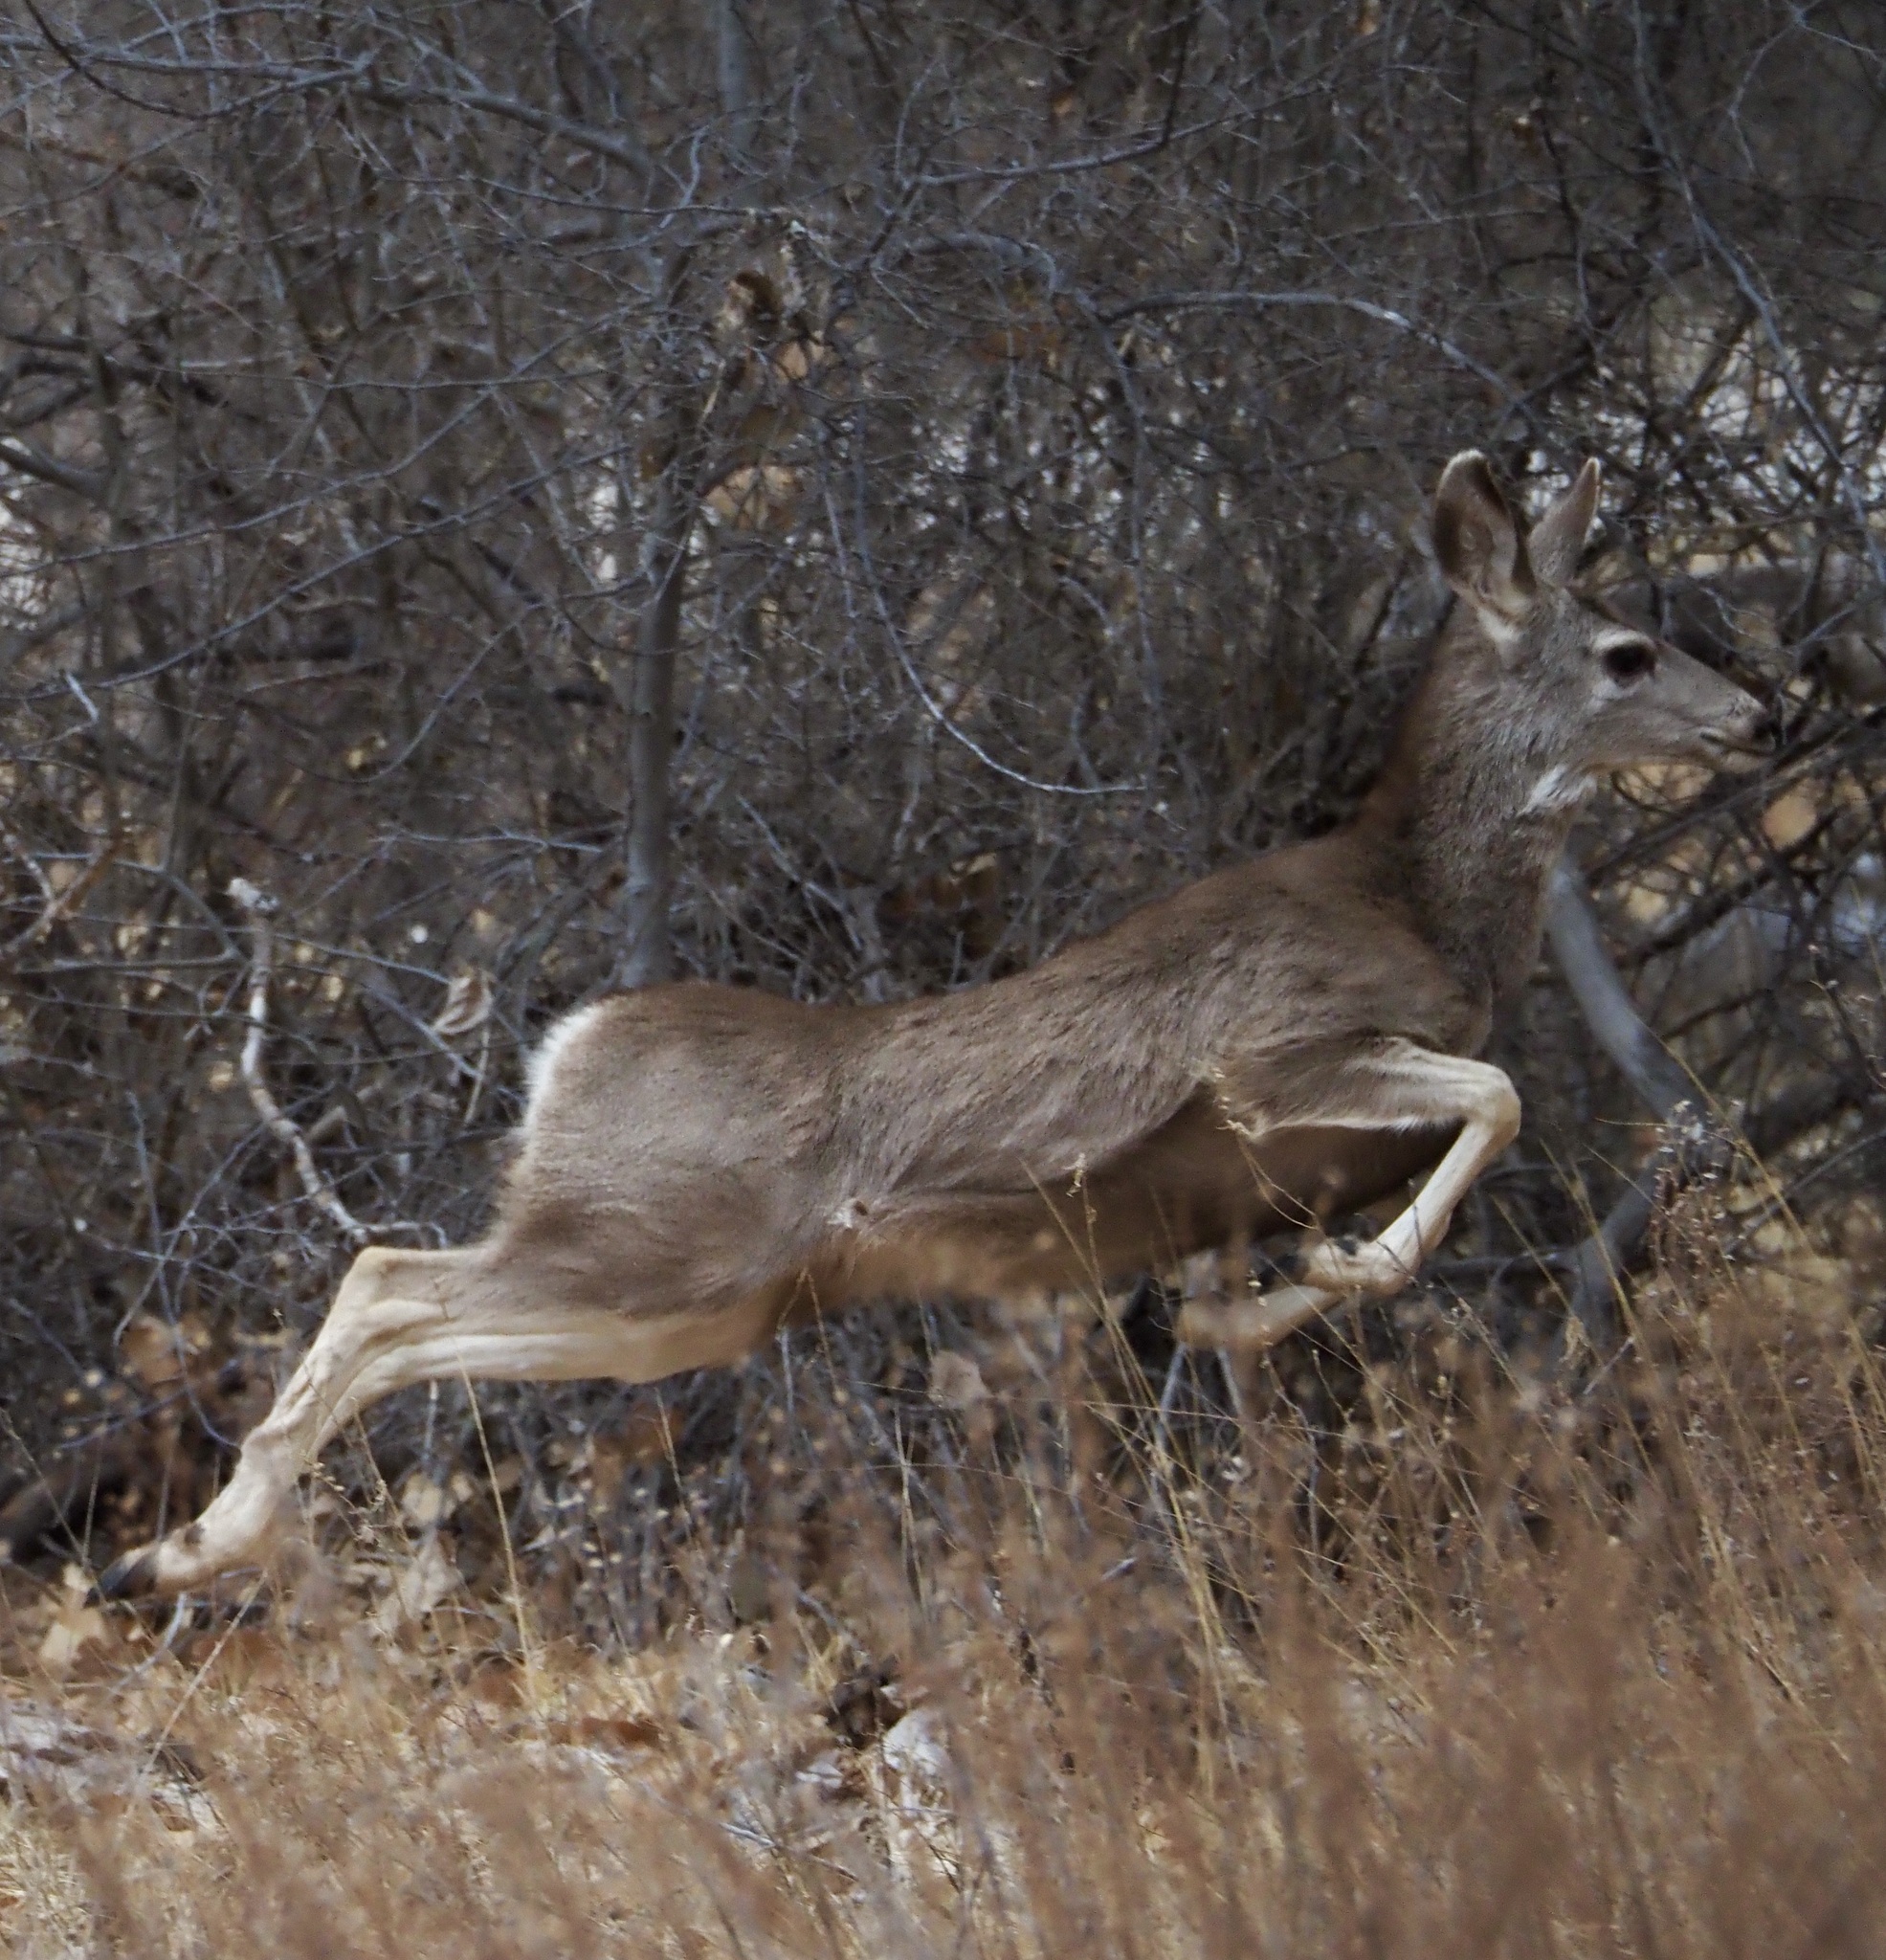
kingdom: Animalia
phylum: Chordata
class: Mammalia
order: Artiodactyla
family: Cervidae
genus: Odocoileus
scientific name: Odocoileus hemionus
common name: Mule deer
